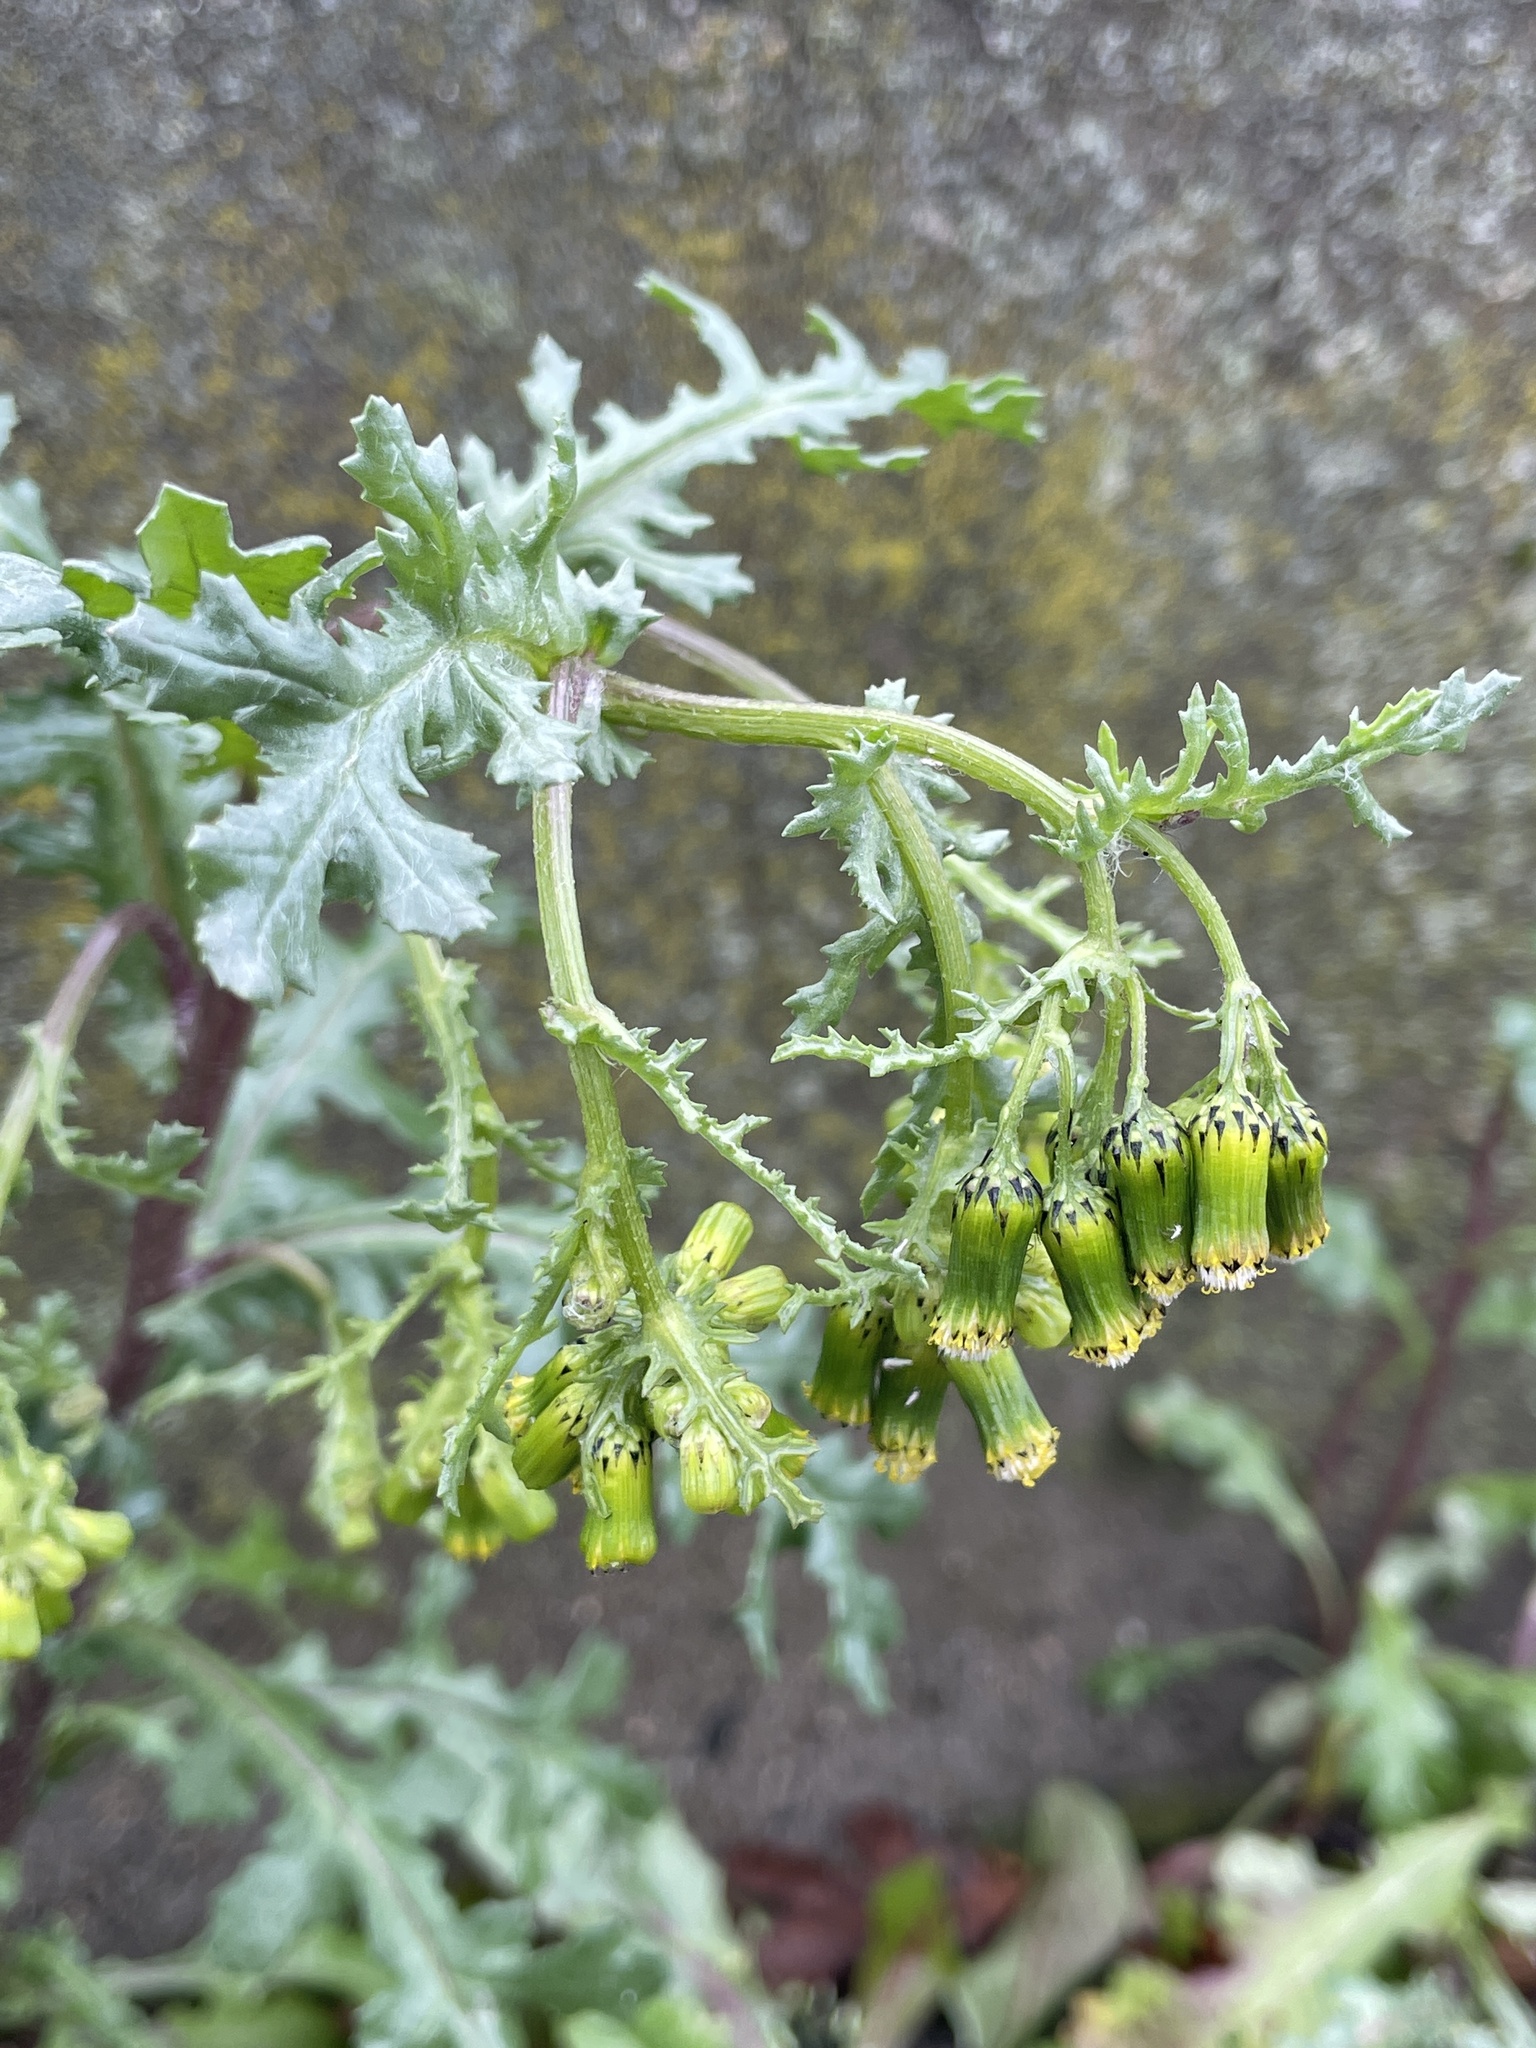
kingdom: Plantae
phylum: Tracheophyta
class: Magnoliopsida
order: Asterales
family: Asteraceae
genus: Senecio
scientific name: Senecio vulgaris
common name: Old-man-in-the-spring
